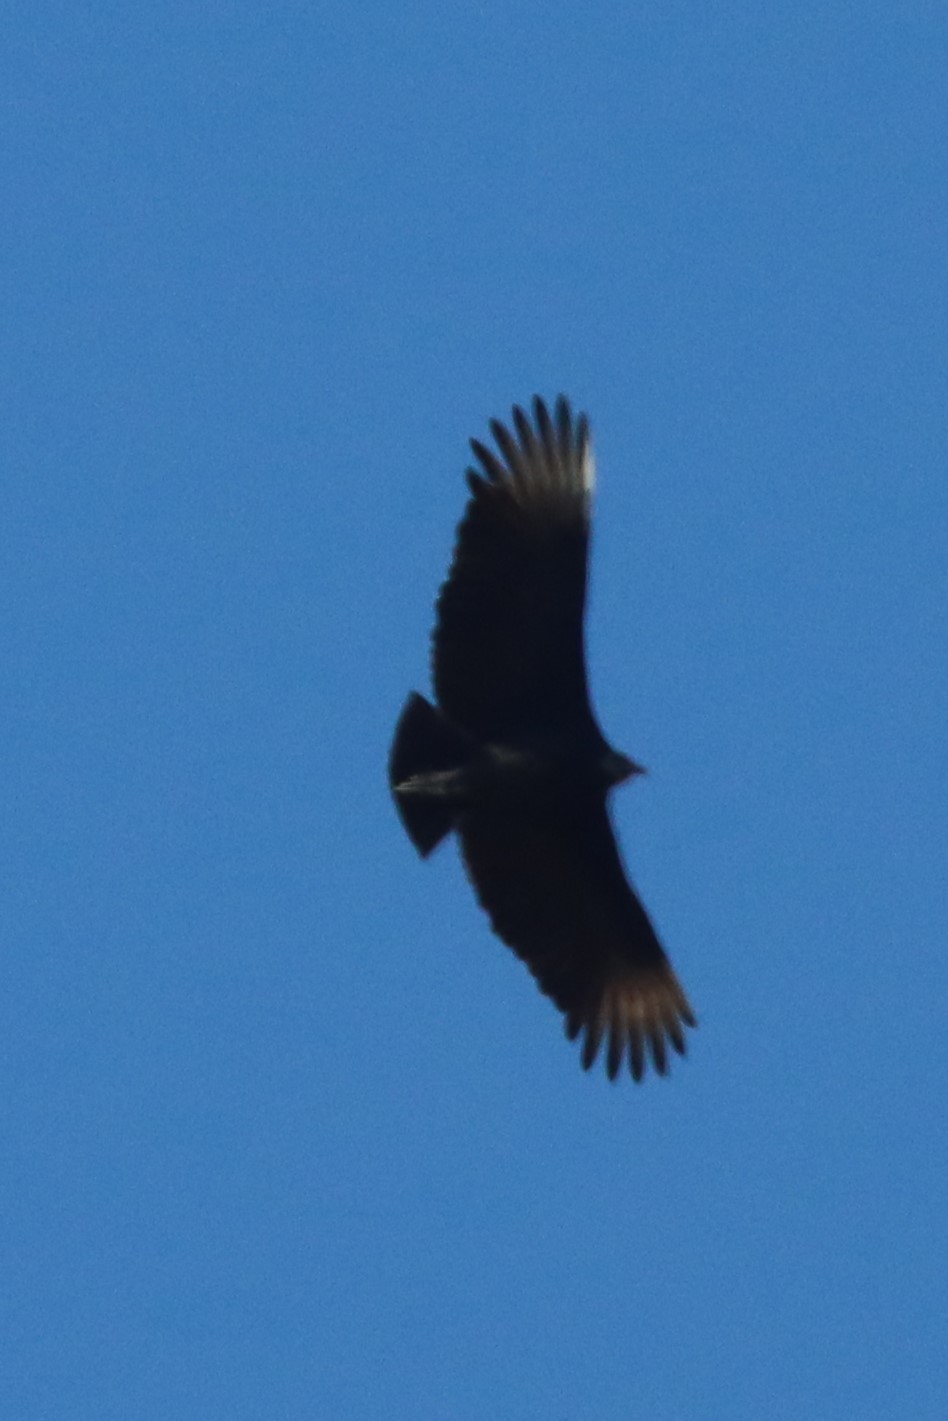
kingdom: Animalia
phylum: Chordata
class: Aves
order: Accipitriformes
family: Cathartidae
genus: Coragyps
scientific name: Coragyps atratus
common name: Black vulture
